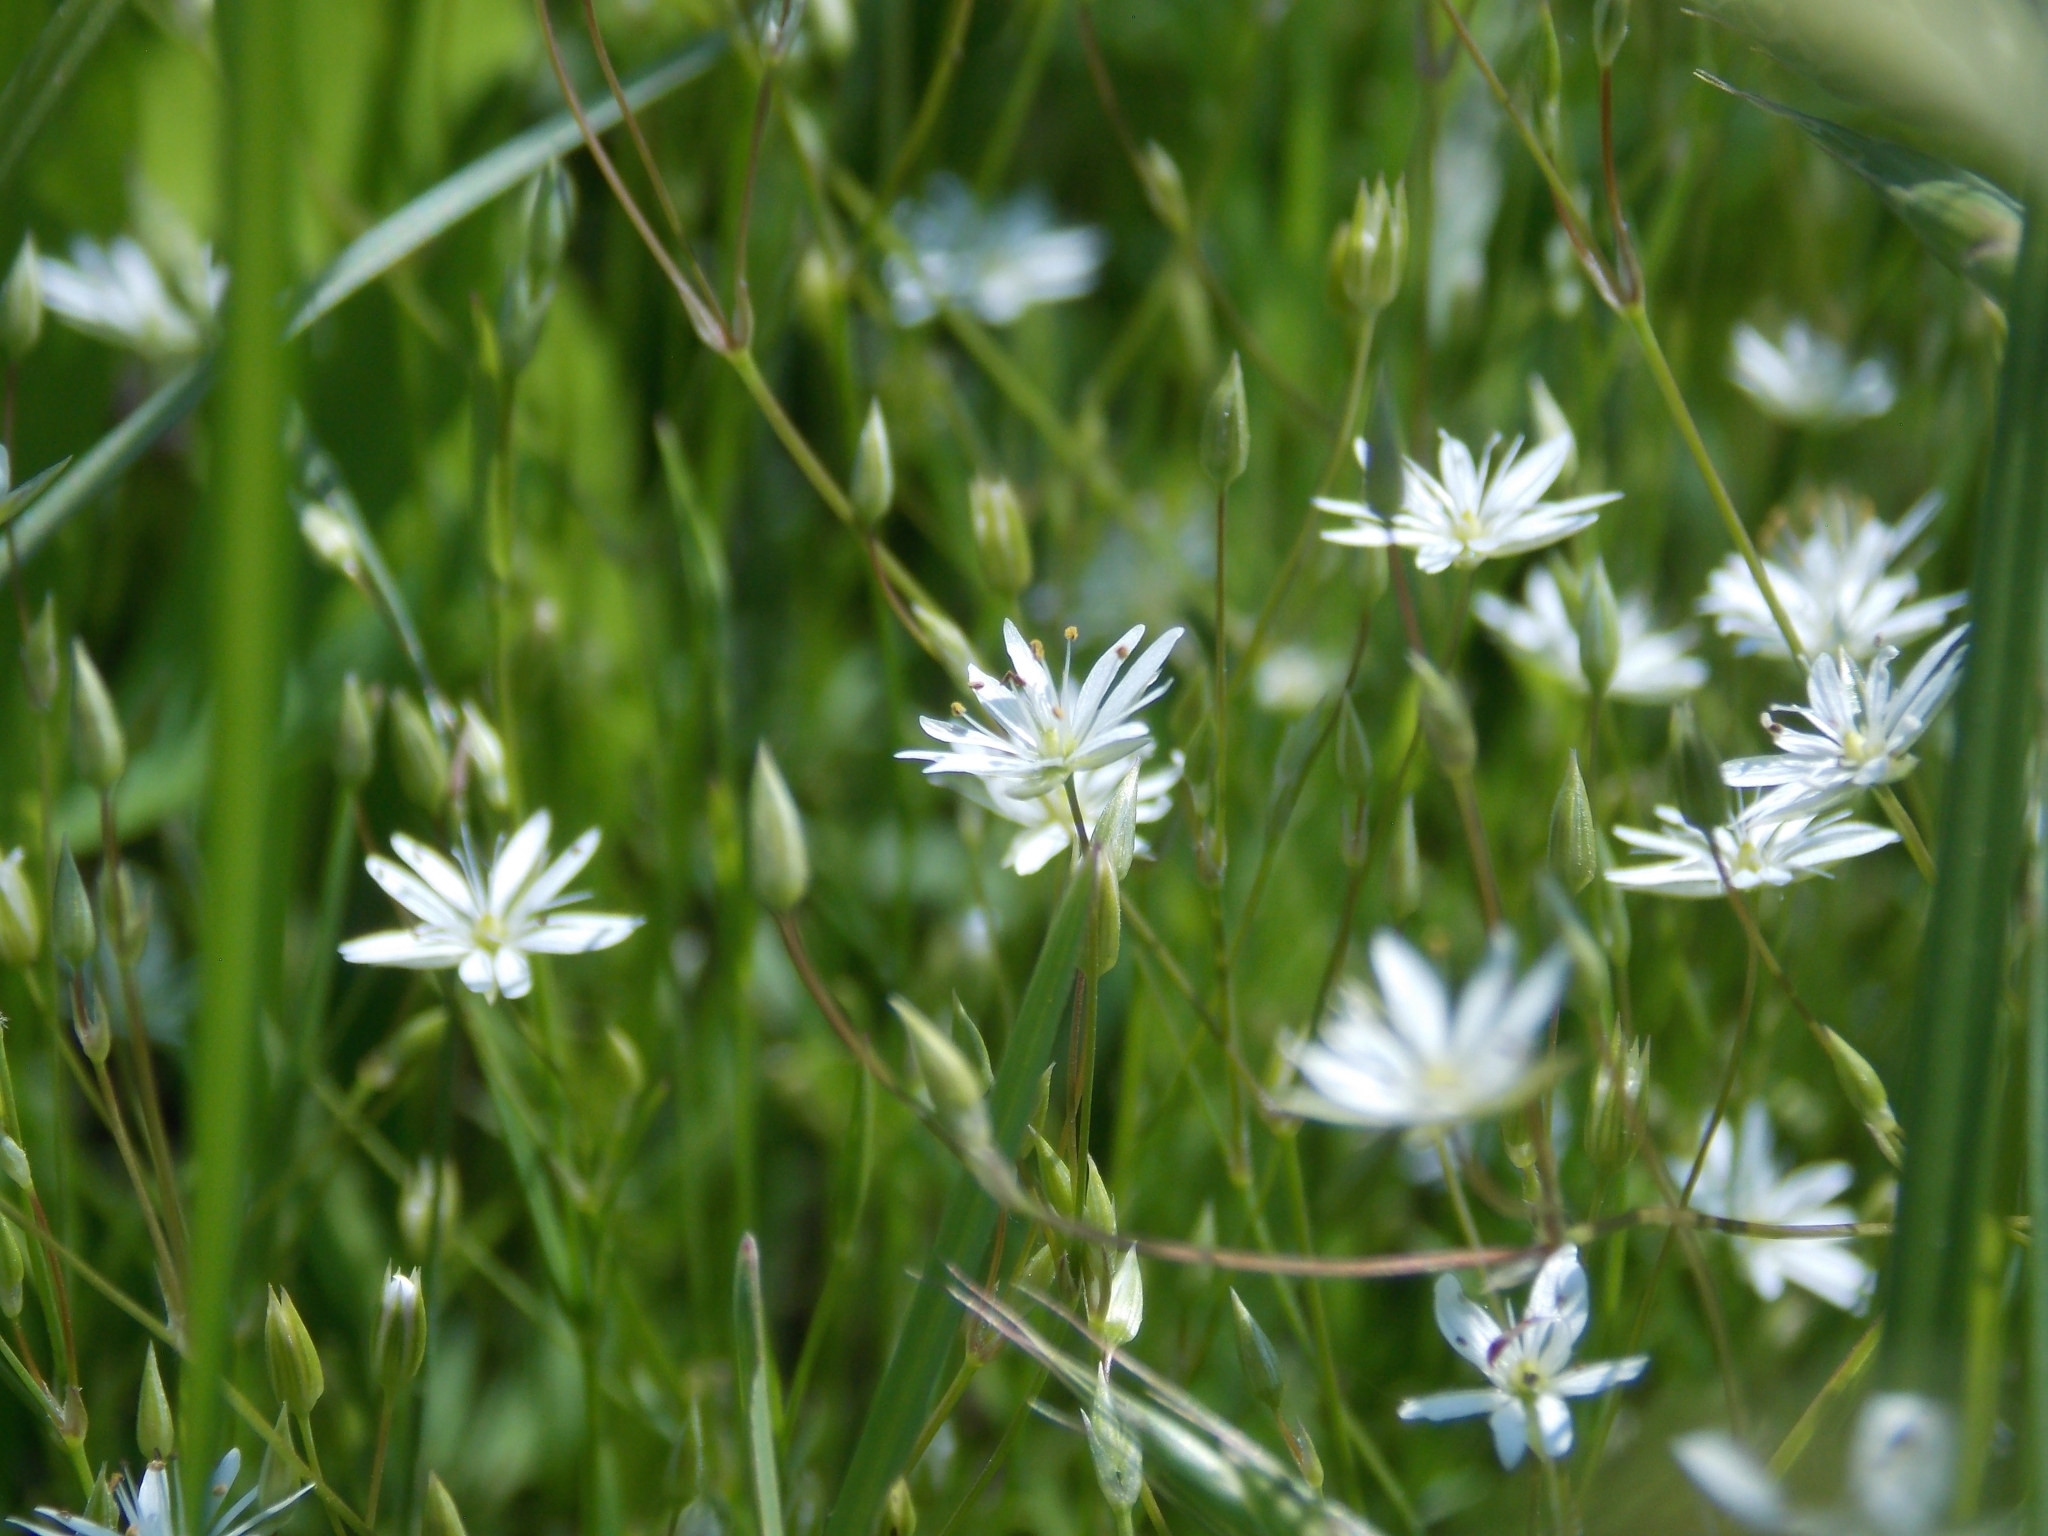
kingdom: Plantae
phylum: Tracheophyta
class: Magnoliopsida
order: Caryophyllales
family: Caryophyllaceae
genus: Stellaria
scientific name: Stellaria graminea
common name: Grass-like starwort
